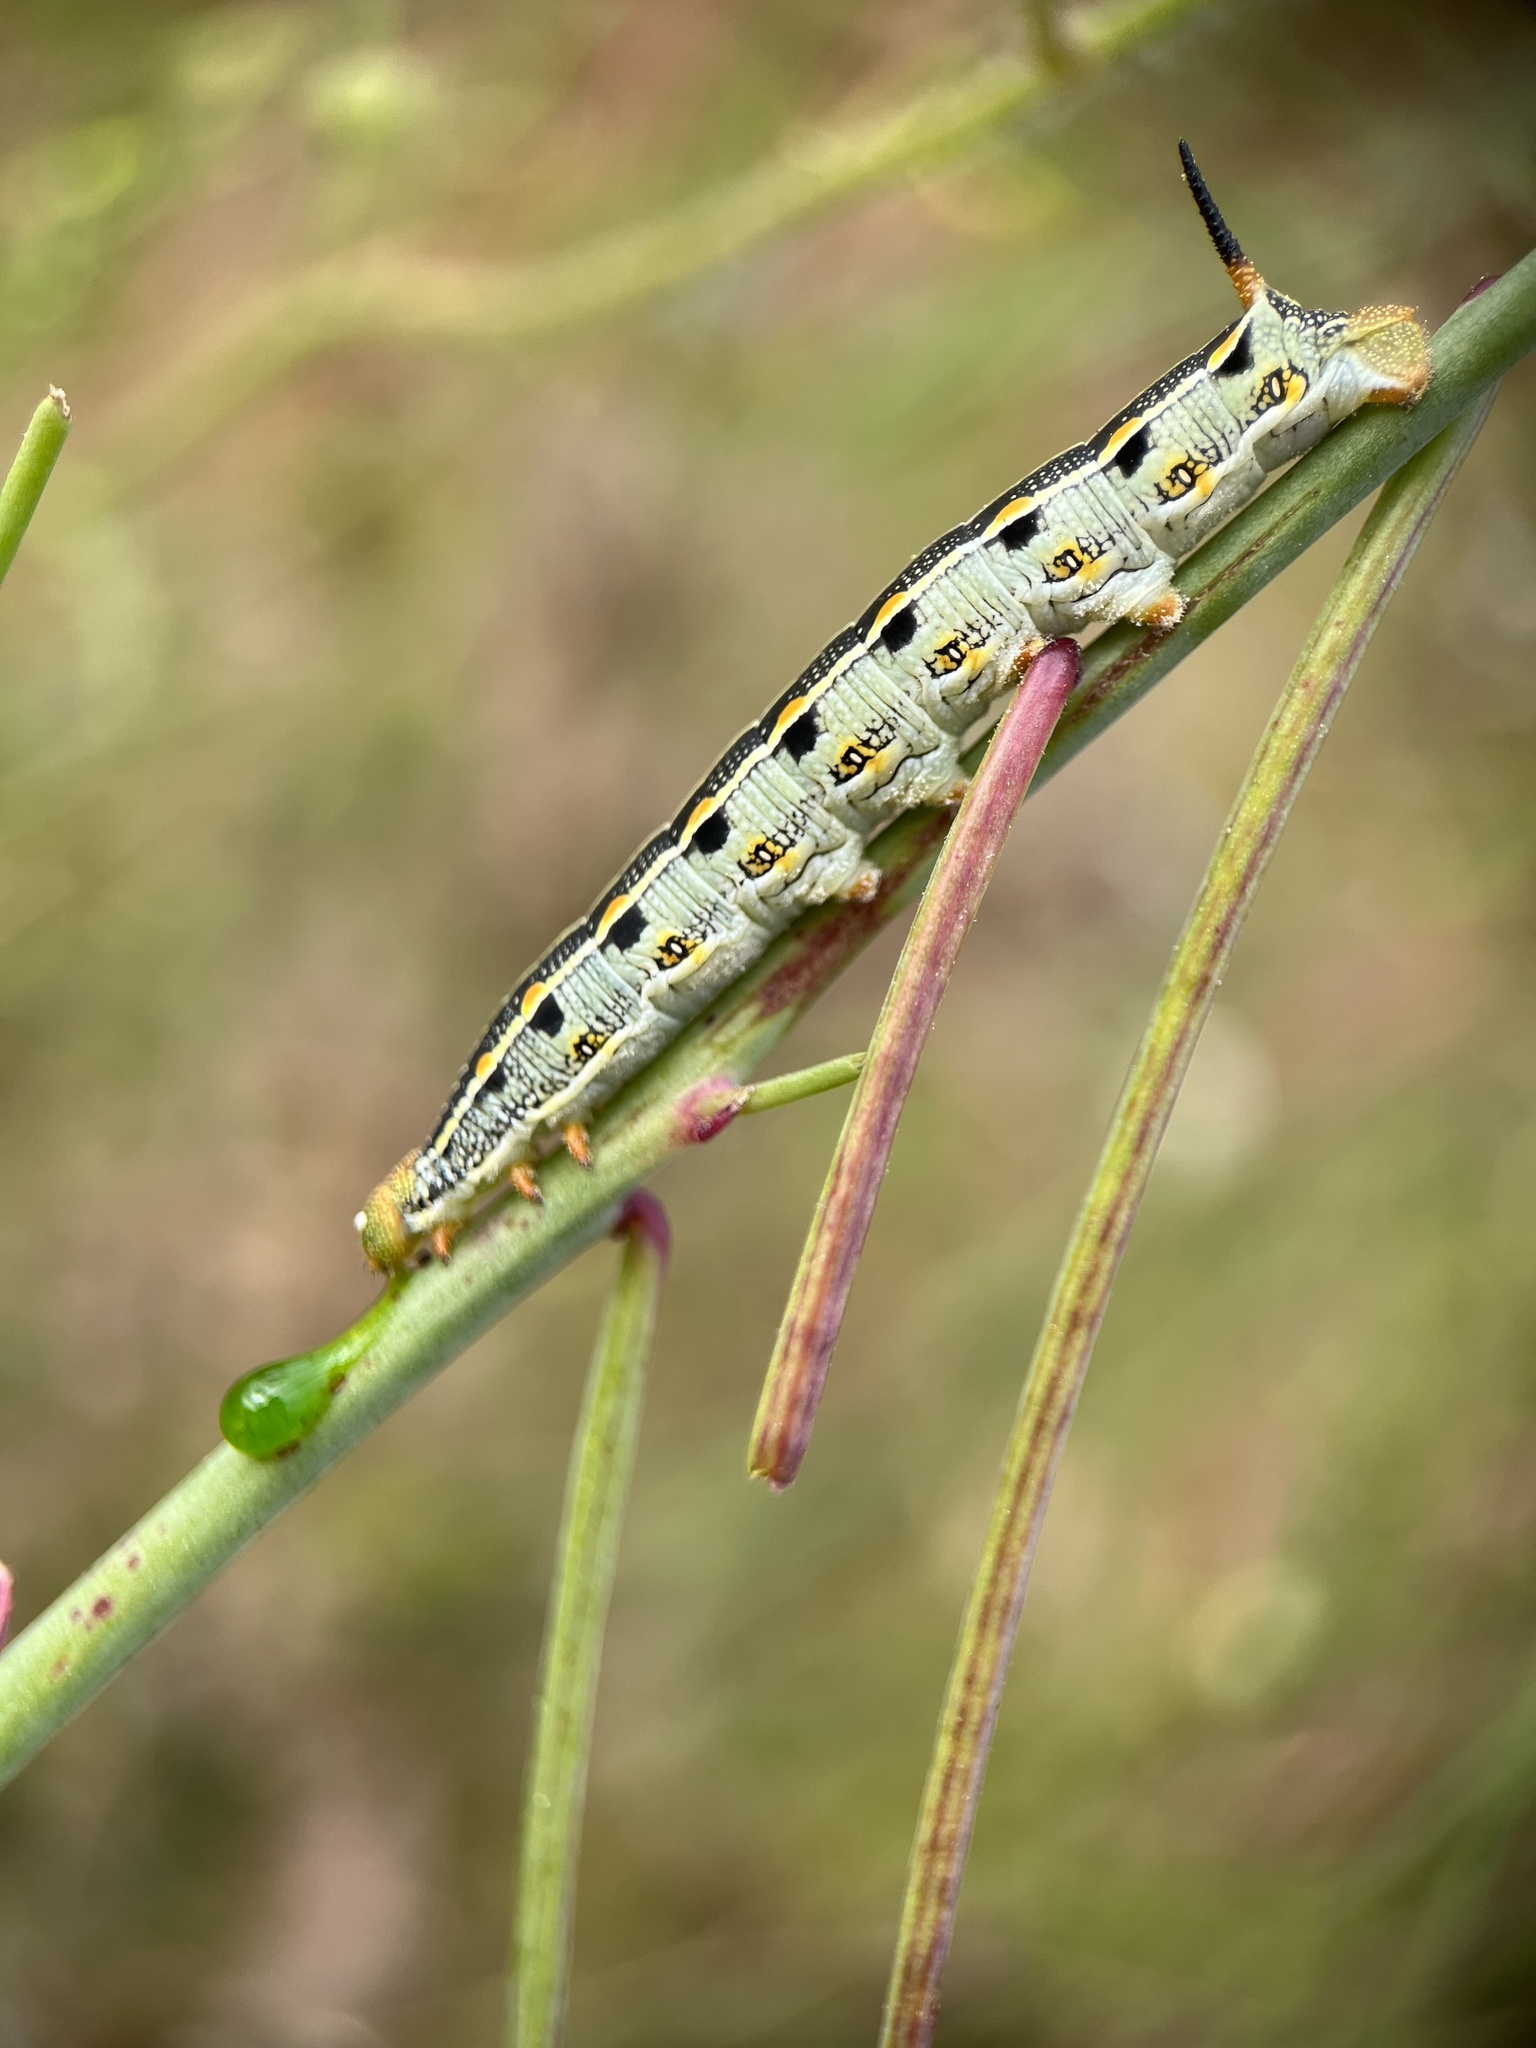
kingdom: Animalia
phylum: Arthropoda
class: Insecta
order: Lepidoptera
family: Sphingidae
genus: Hyles
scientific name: Hyles lineata
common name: White-lined sphinx
